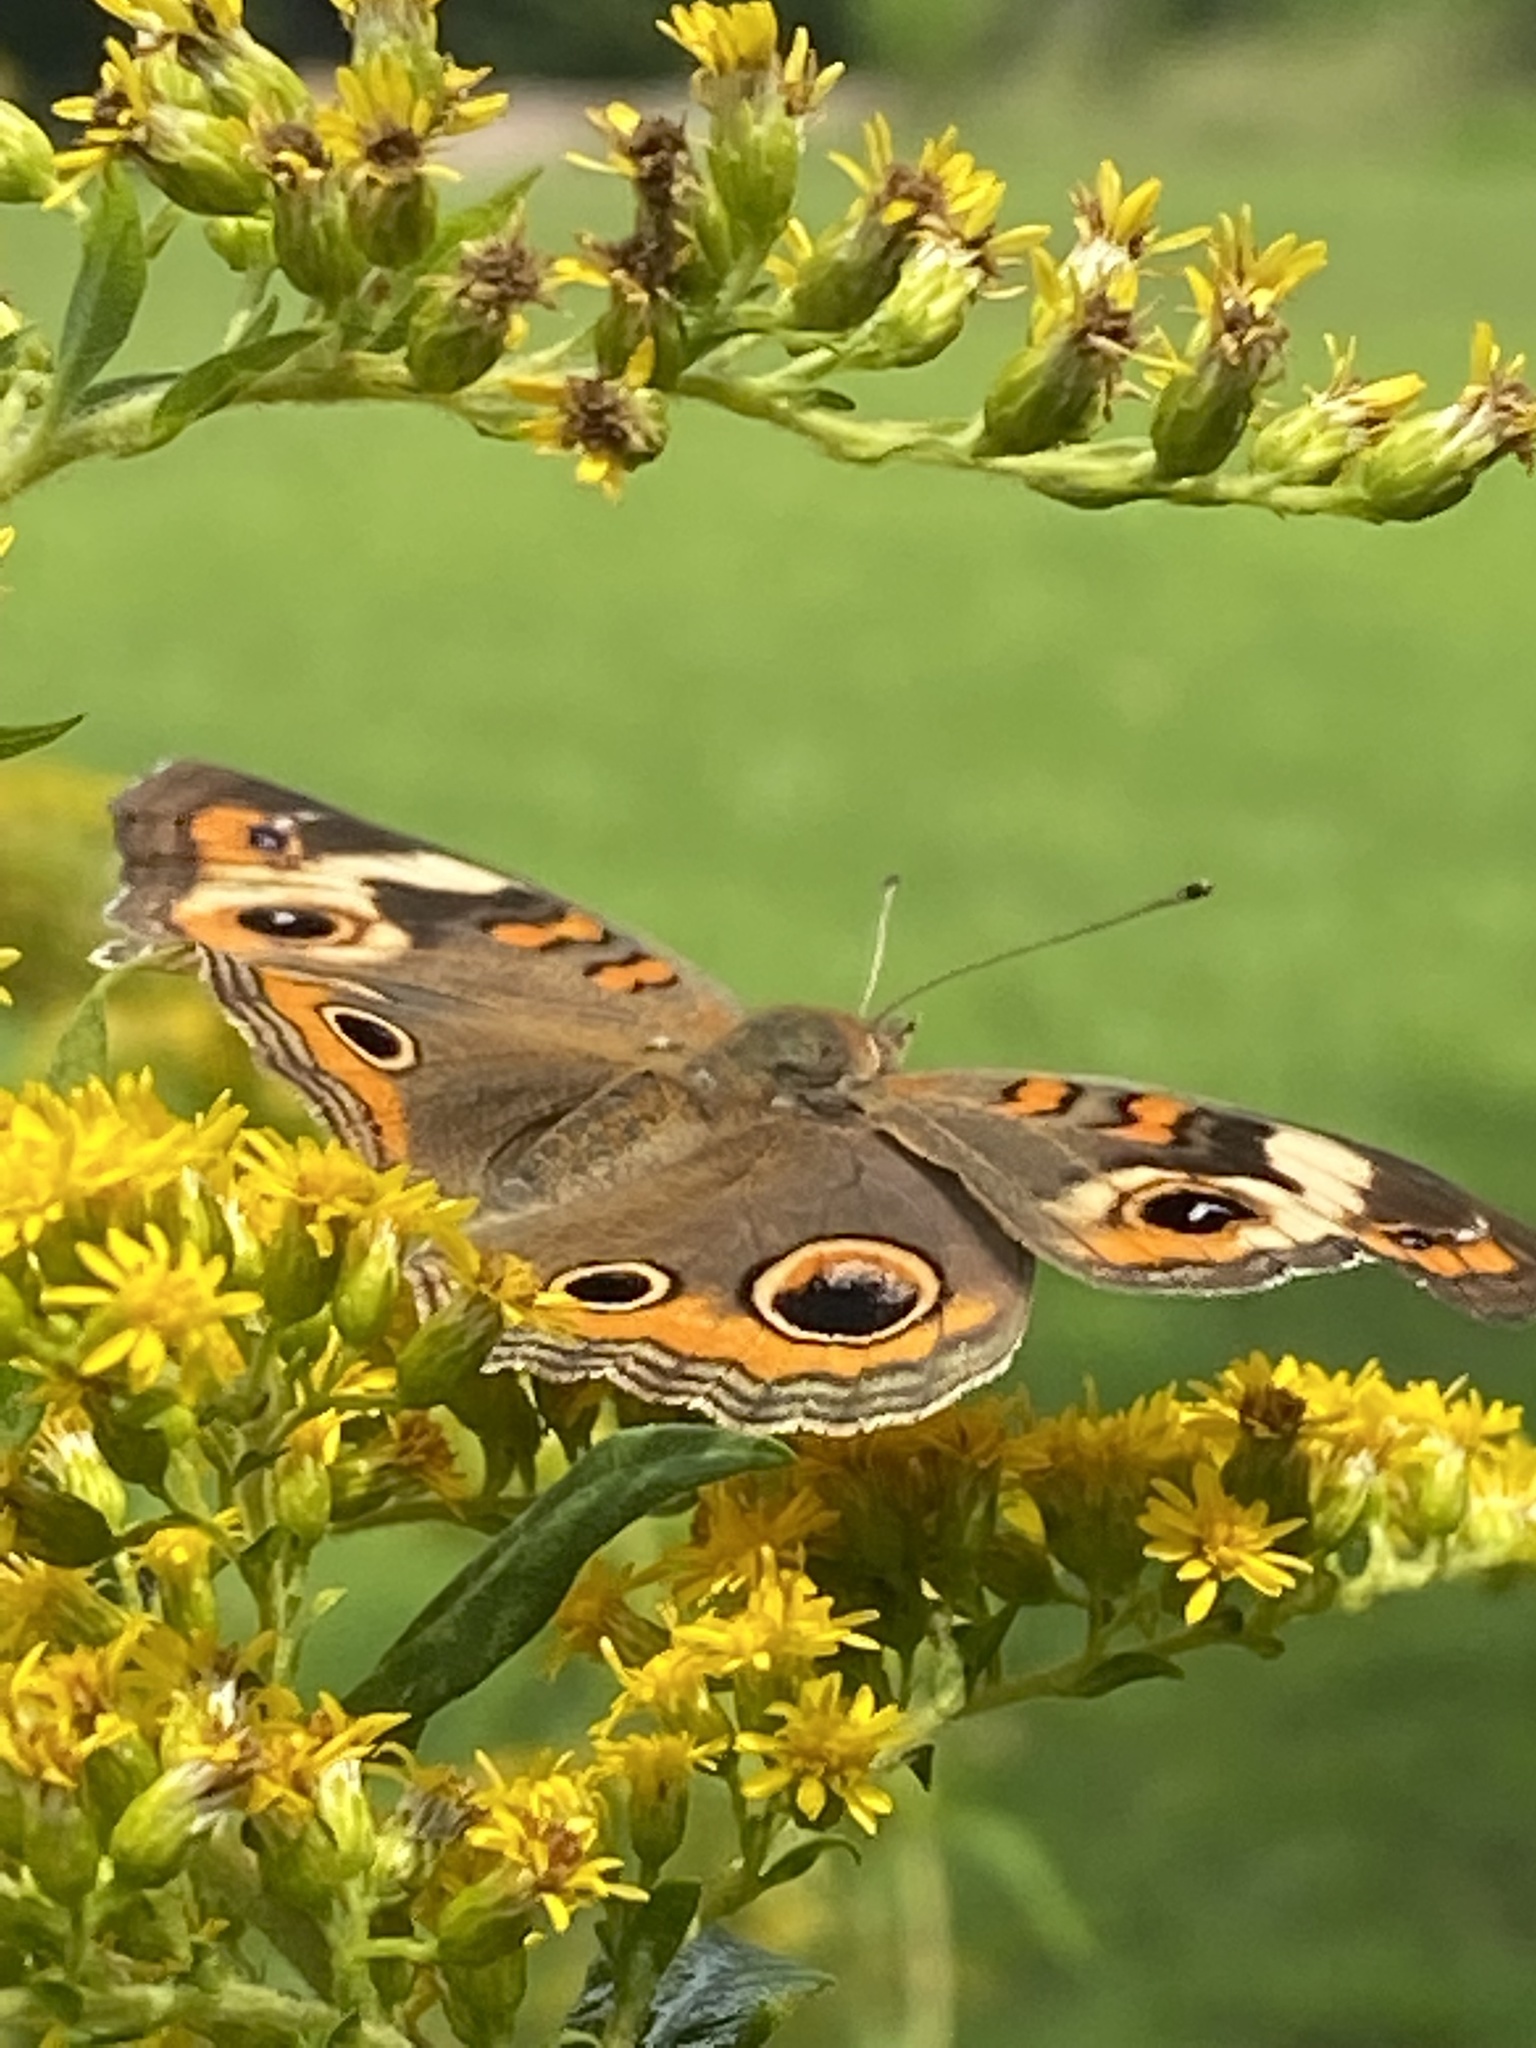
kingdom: Animalia
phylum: Arthropoda
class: Insecta
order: Lepidoptera
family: Nymphalidae
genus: Junonia
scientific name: Junonia coenia
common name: Common buckeye
